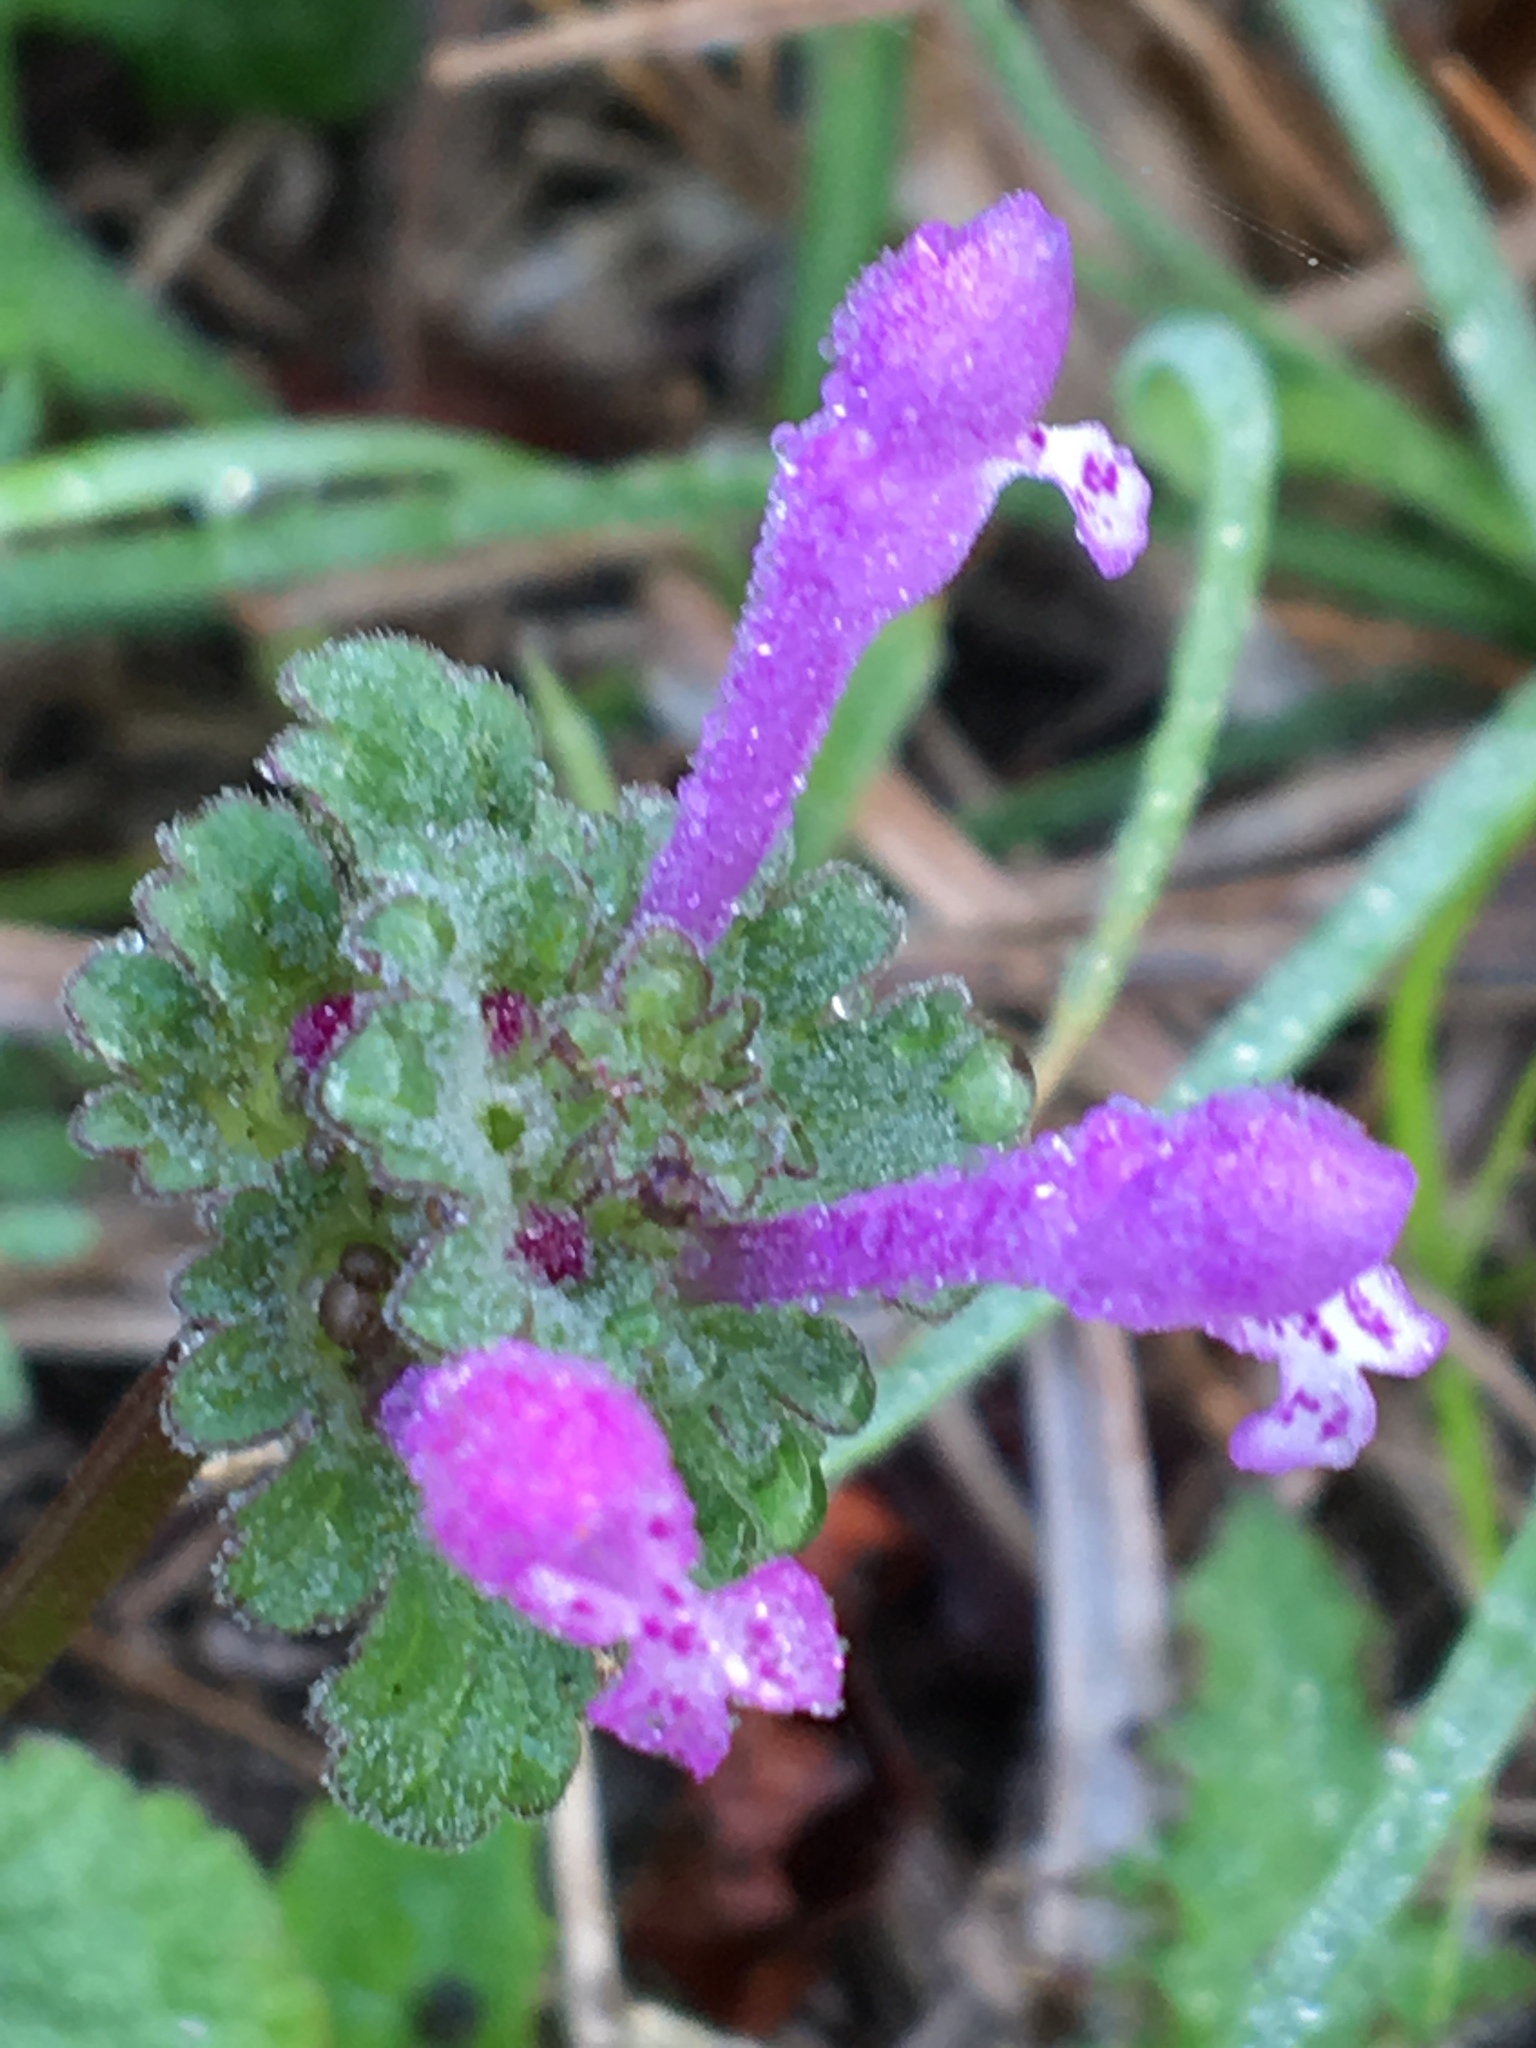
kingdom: Plantae
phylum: Tracheophyta
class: Magnoliopsida
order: Lamiales
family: Lamiaceae
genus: Lamium
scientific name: Lamium amplexicaule
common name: Henbit dead-nettle
